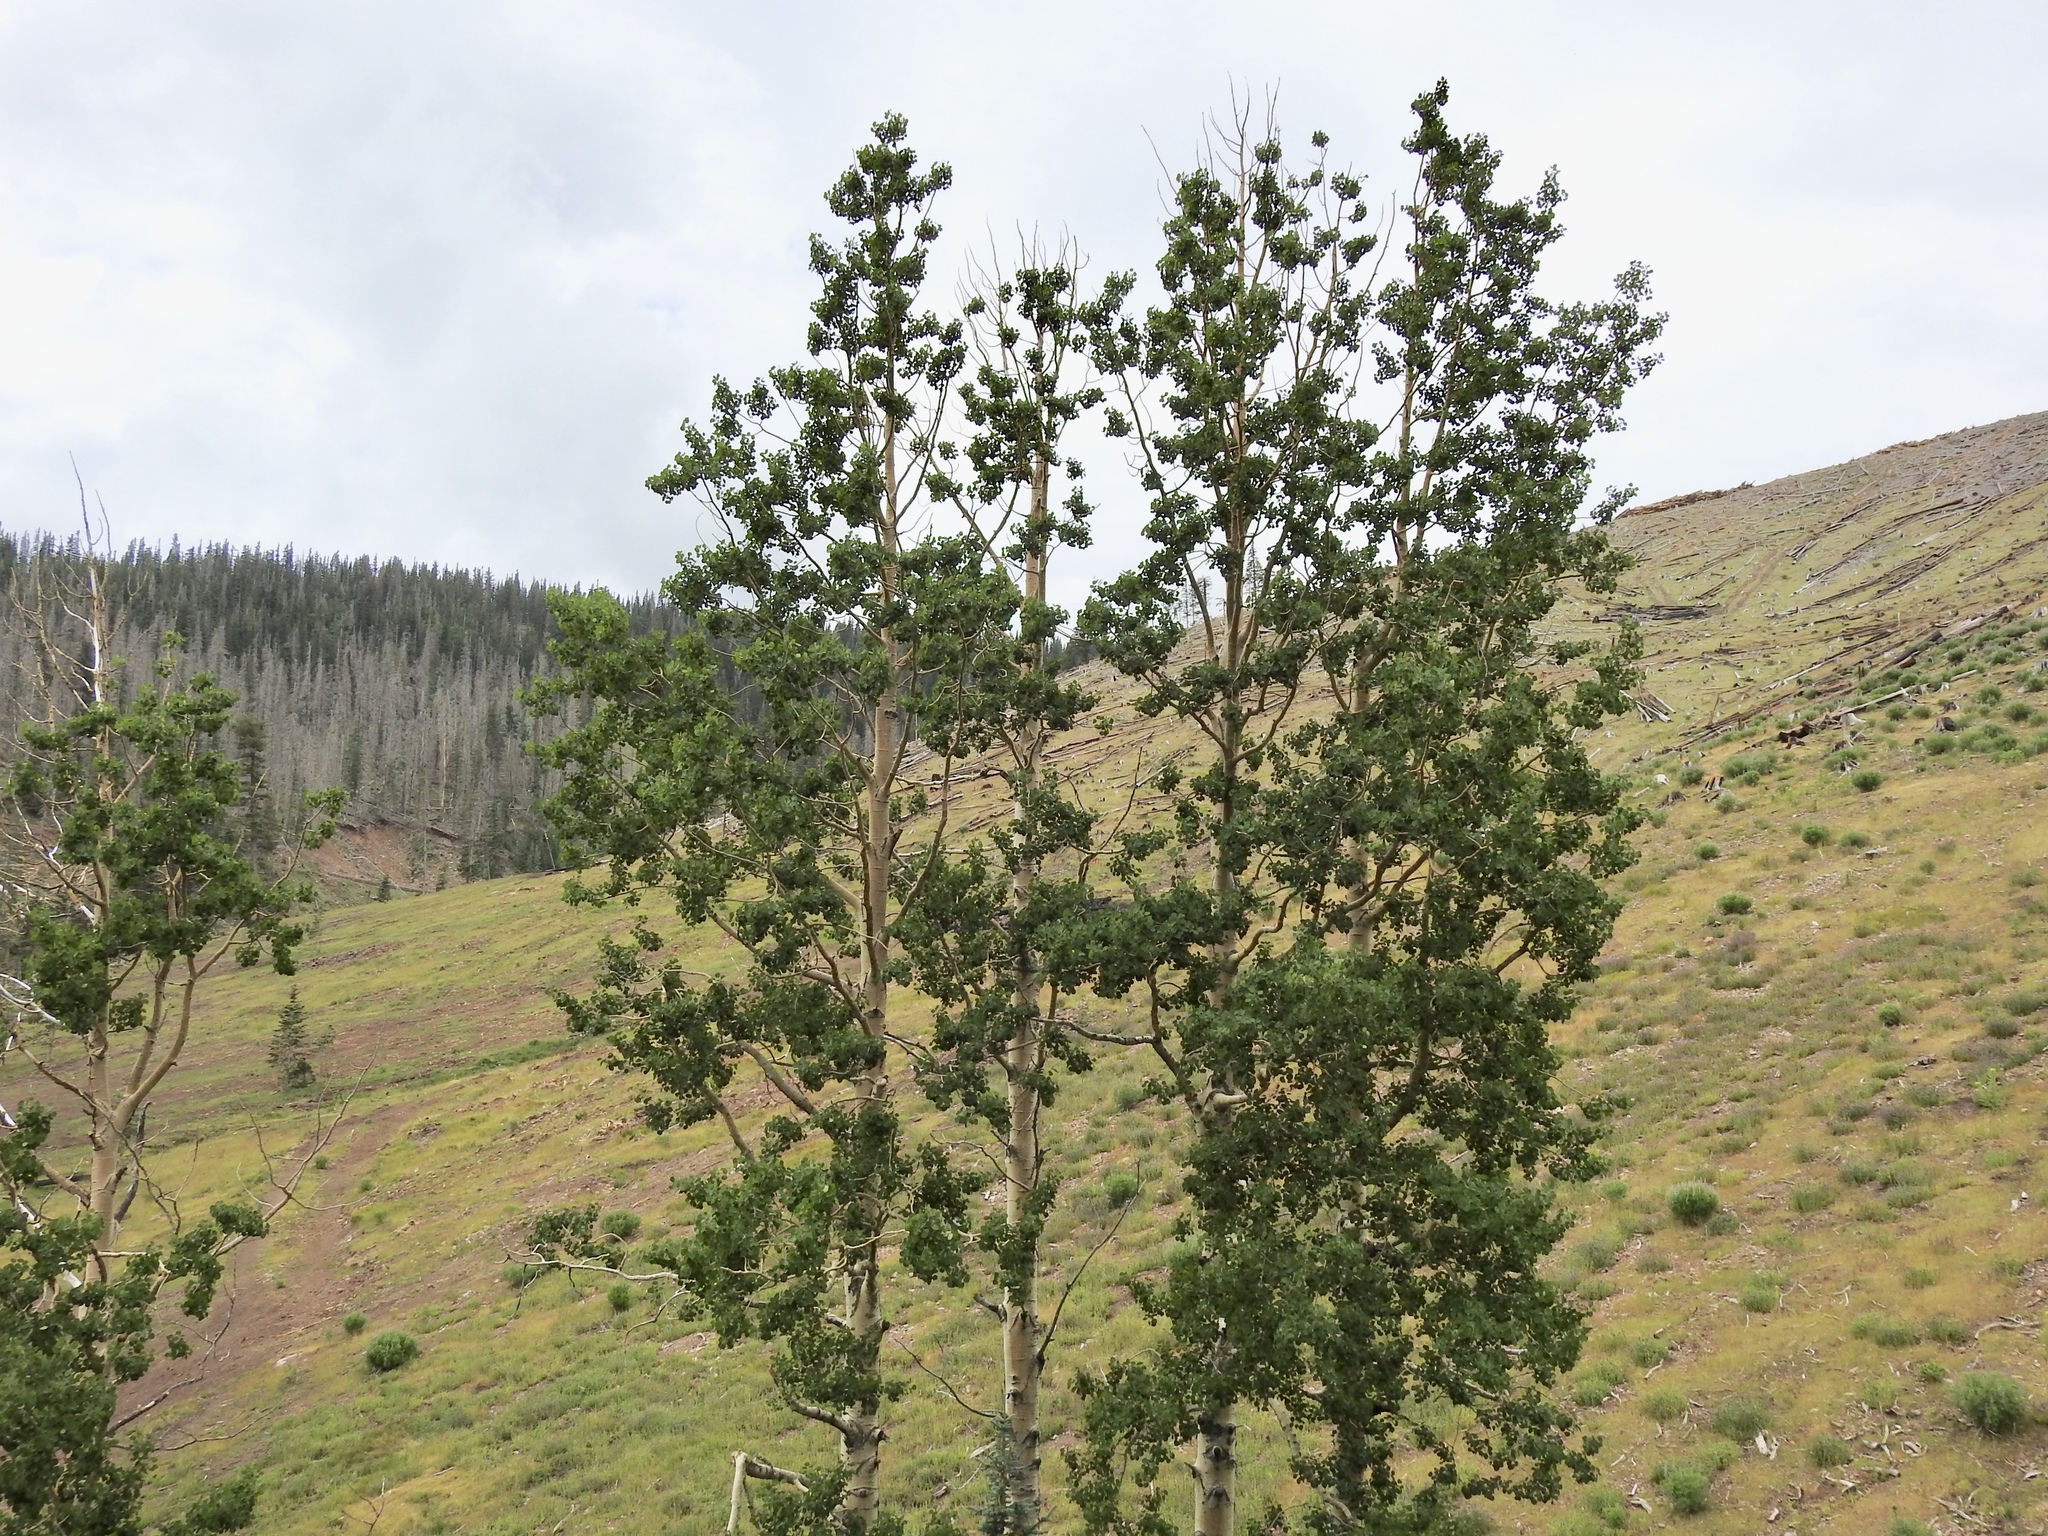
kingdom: Plantae
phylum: Tracheophyta
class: Magnoliopsida
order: Malpighiales
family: Salicaceae
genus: Populus
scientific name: Populus tremuloides
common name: Quaking aspen
